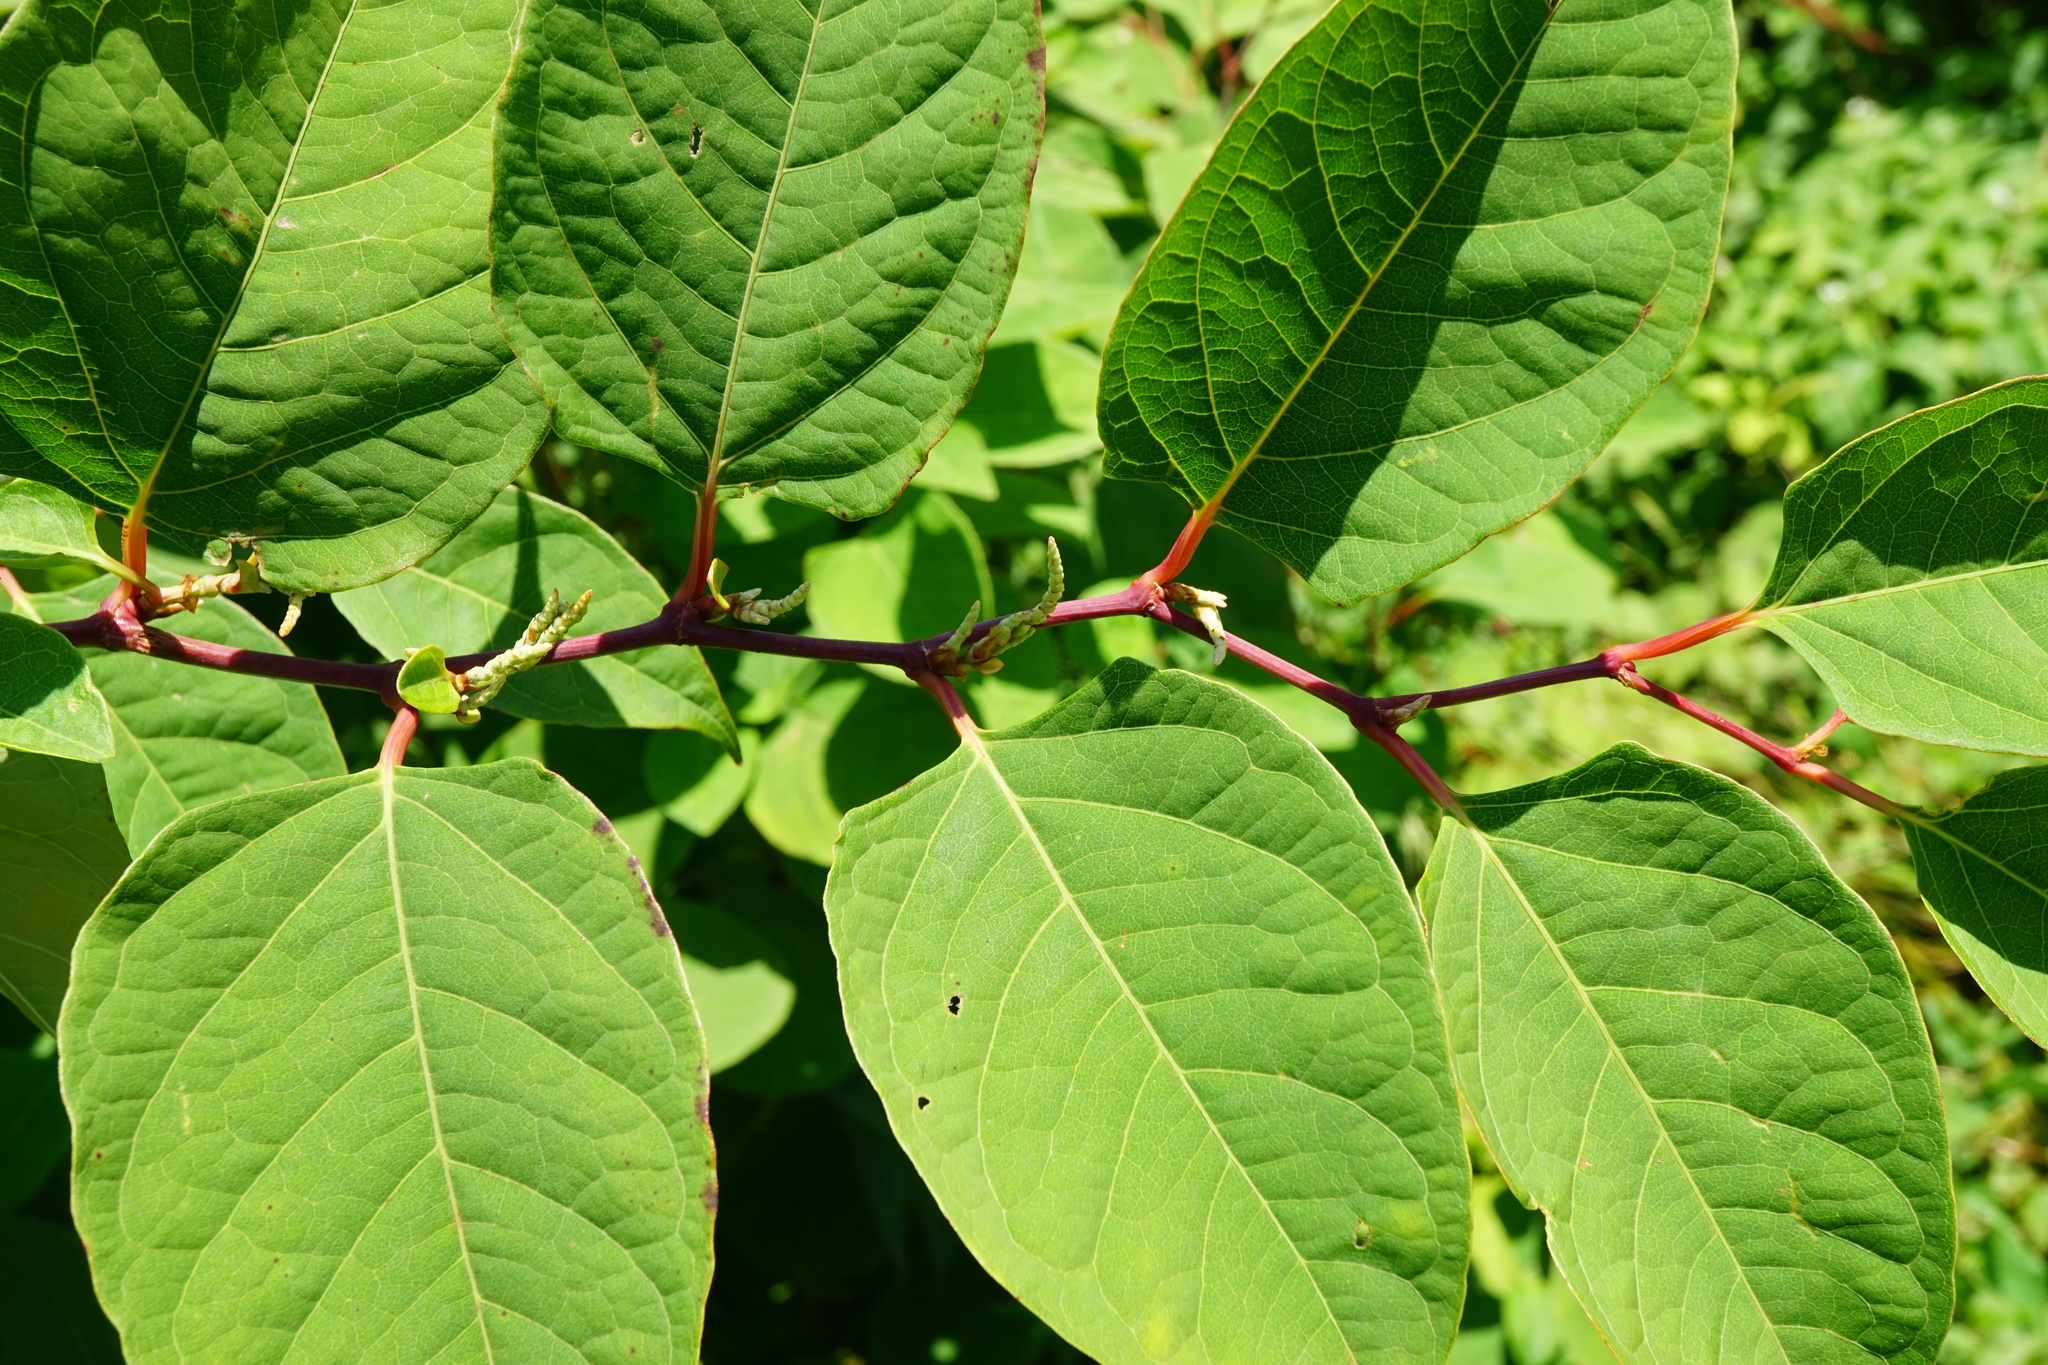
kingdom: Plantae
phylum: Tracheophyta
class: Magnoliopsida
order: Caryophyllales
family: Polygonaceae
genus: Reynoutria
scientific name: Reynoutria japonica
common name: Japanese knotweed
